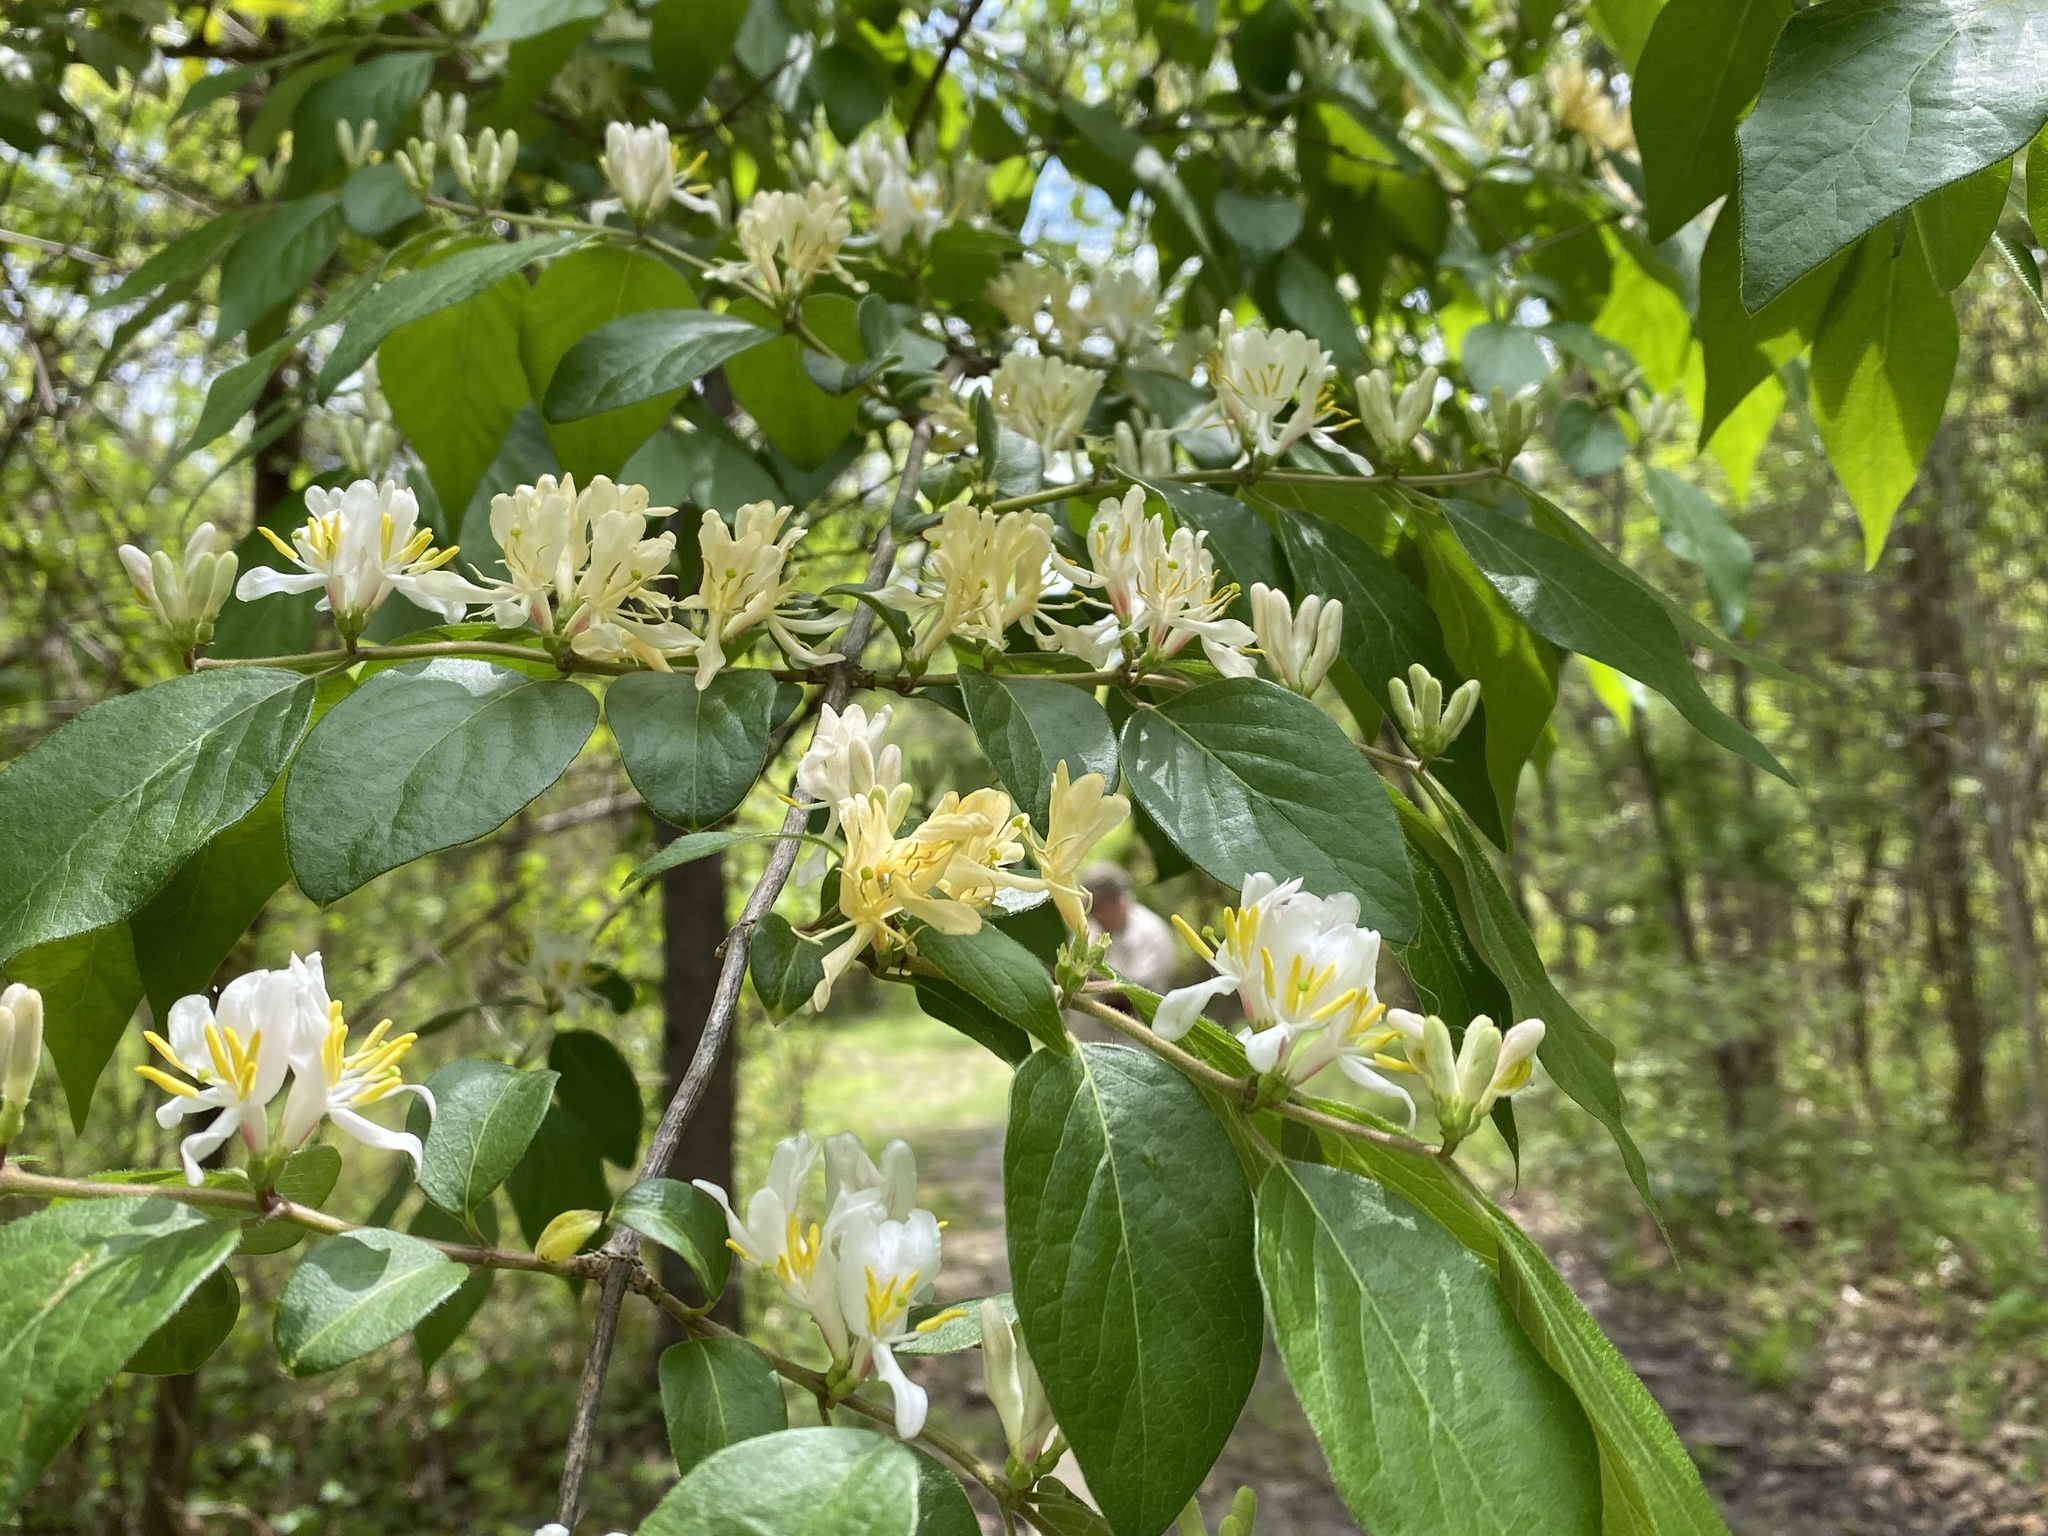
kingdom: Plantae
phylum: Tracheophyta
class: Magnoliopsida
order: Dipsacales
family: Caprifoliaceae
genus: Lonicera
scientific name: Lonicera maackii
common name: Amur honeysuckle
